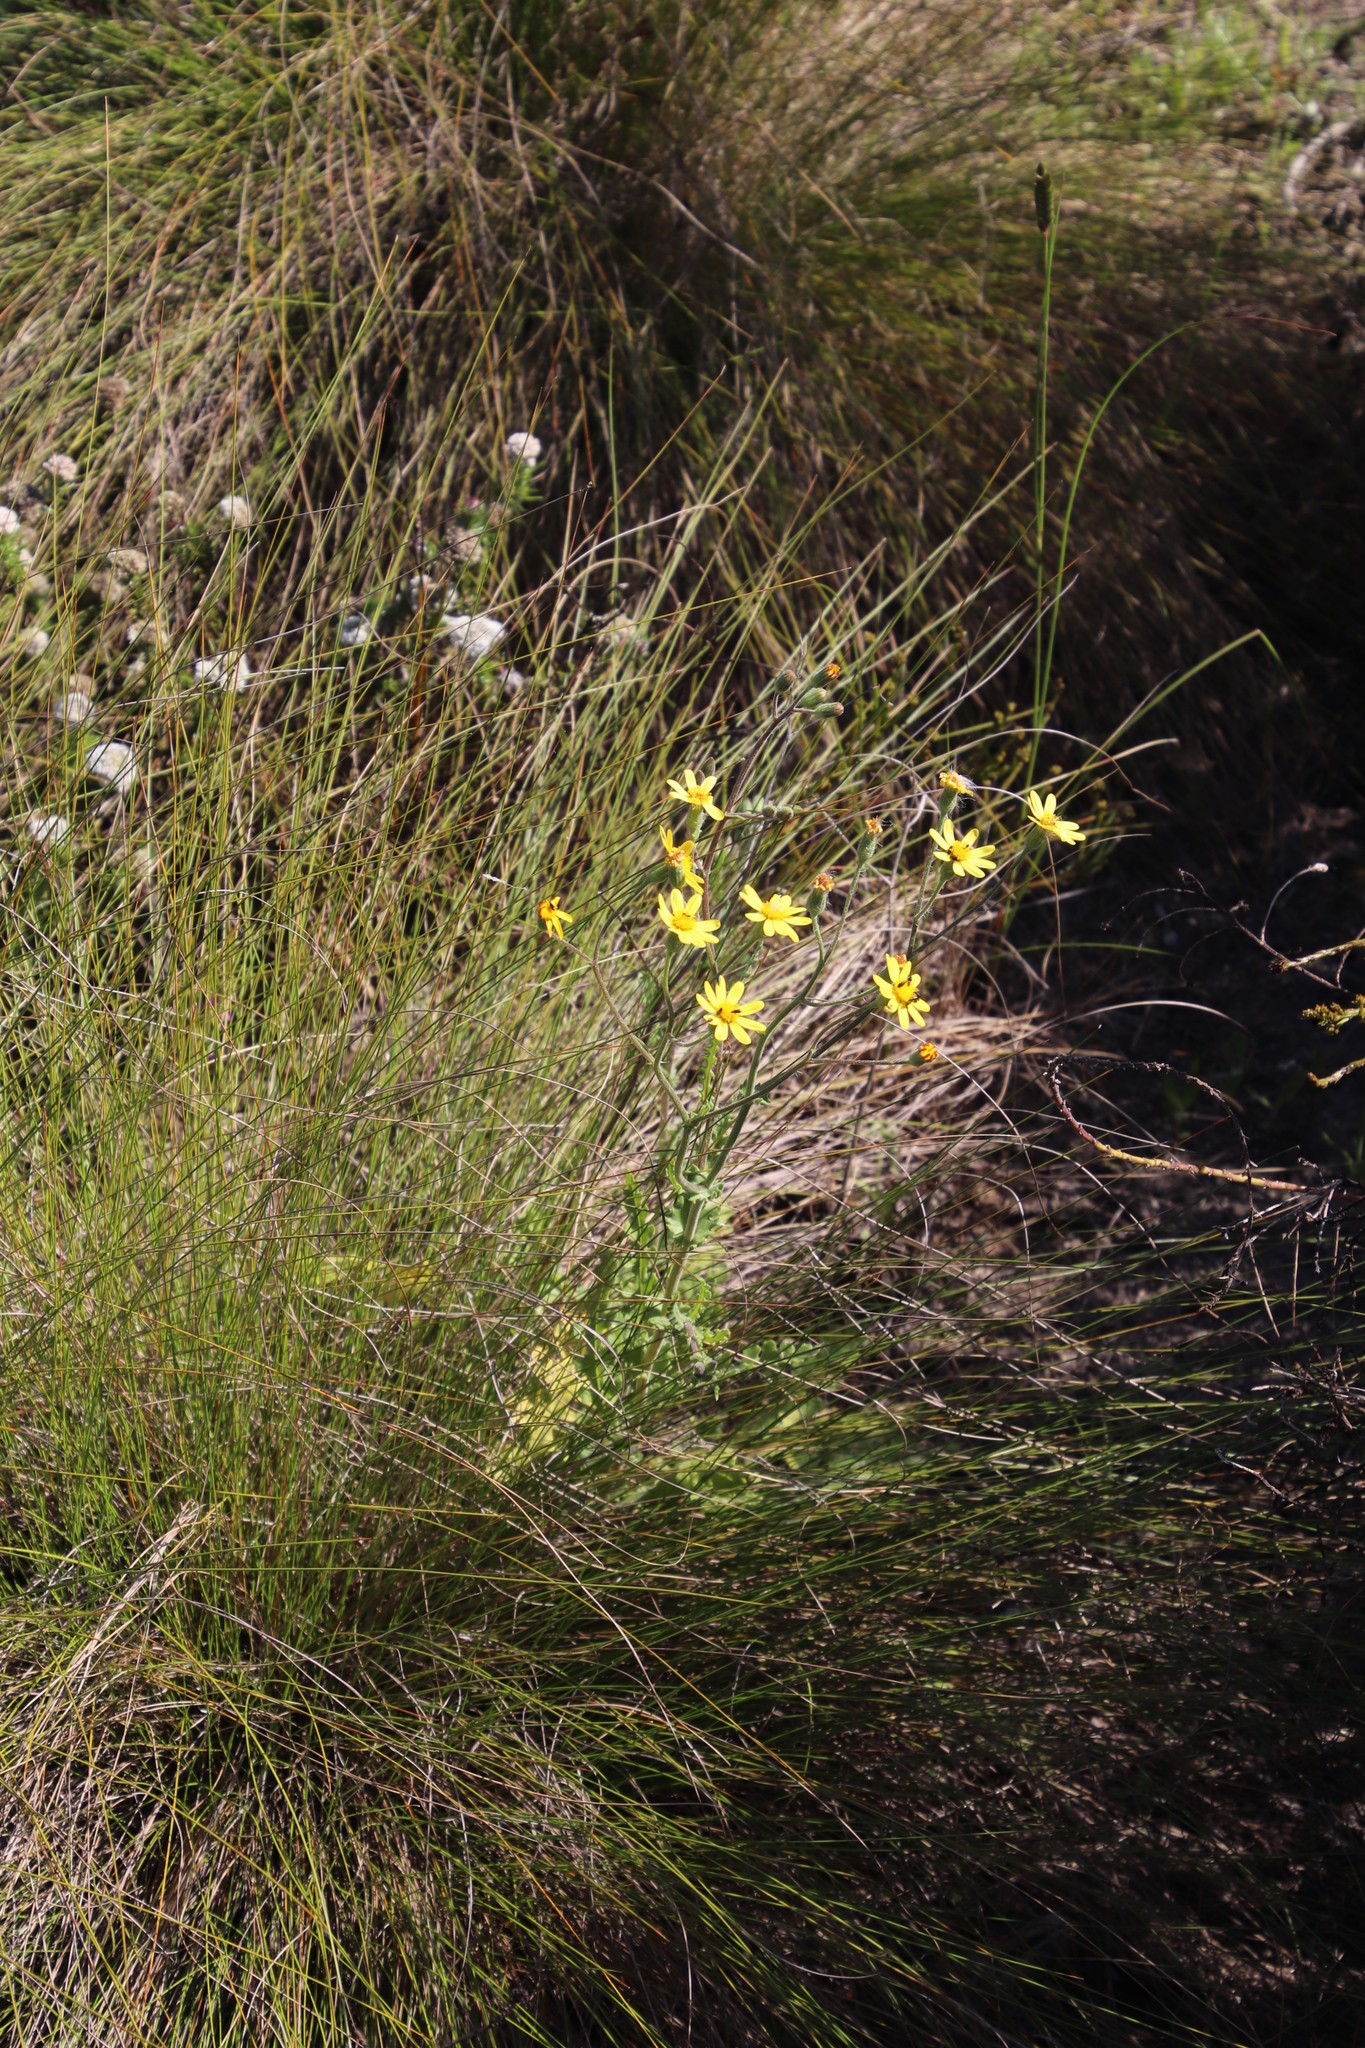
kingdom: Plantae
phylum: Tracheophyta
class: Magnoliopsida
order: Asterales
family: Asteraceae
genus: Senecio
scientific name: Senecio hastatus
